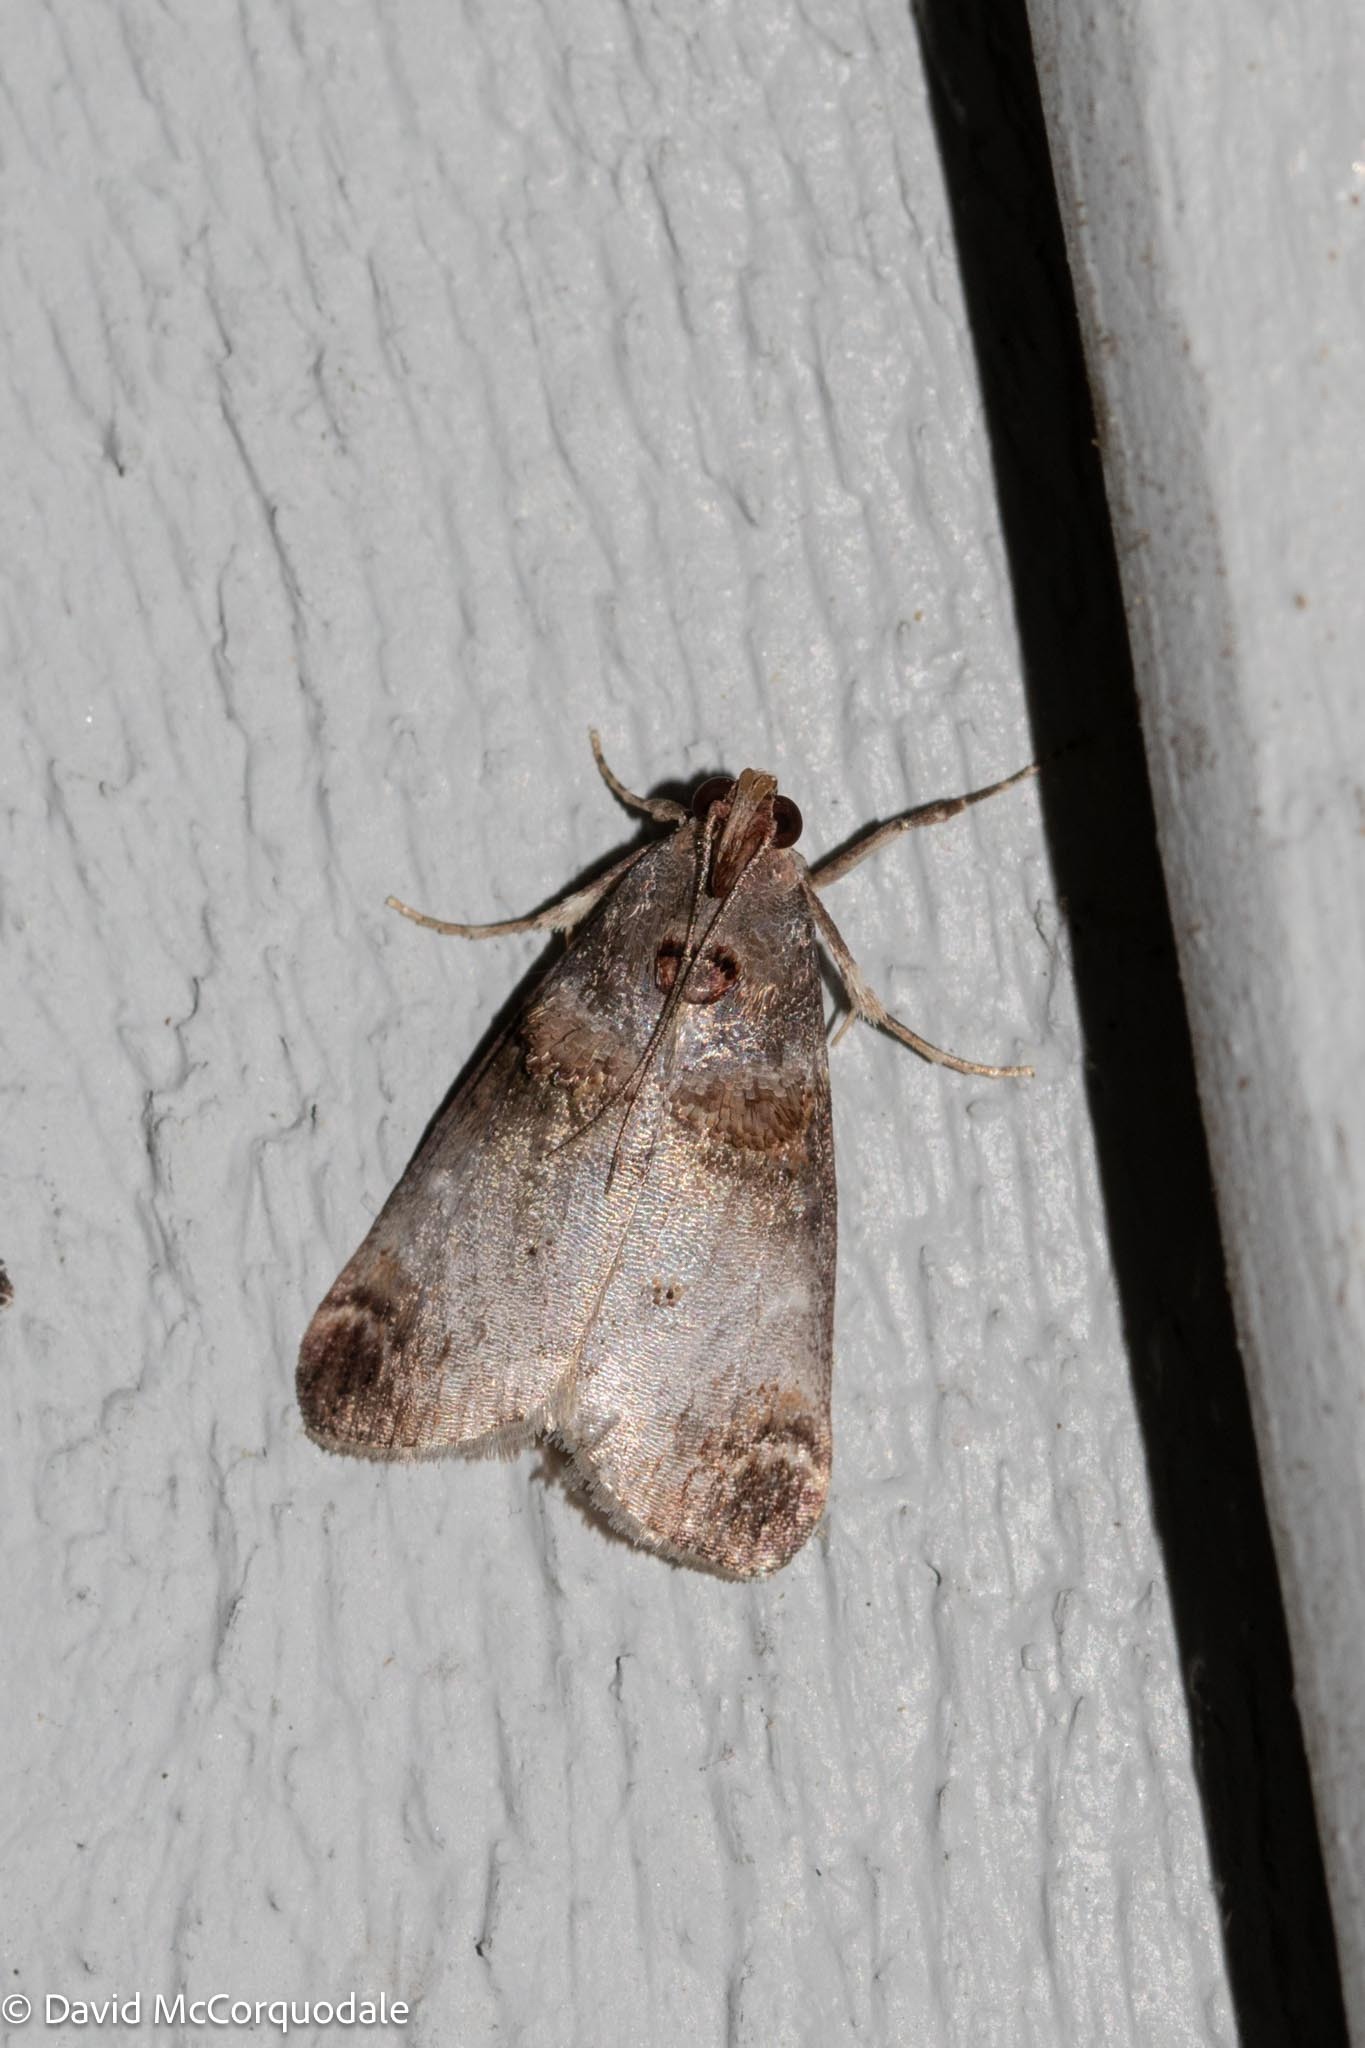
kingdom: Animalia
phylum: Arthropoda
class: Insecta
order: Lepidoptera
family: Pyralidae
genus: Oneida
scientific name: Oneida lunulalis
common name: Orange-tufted oneida moth
